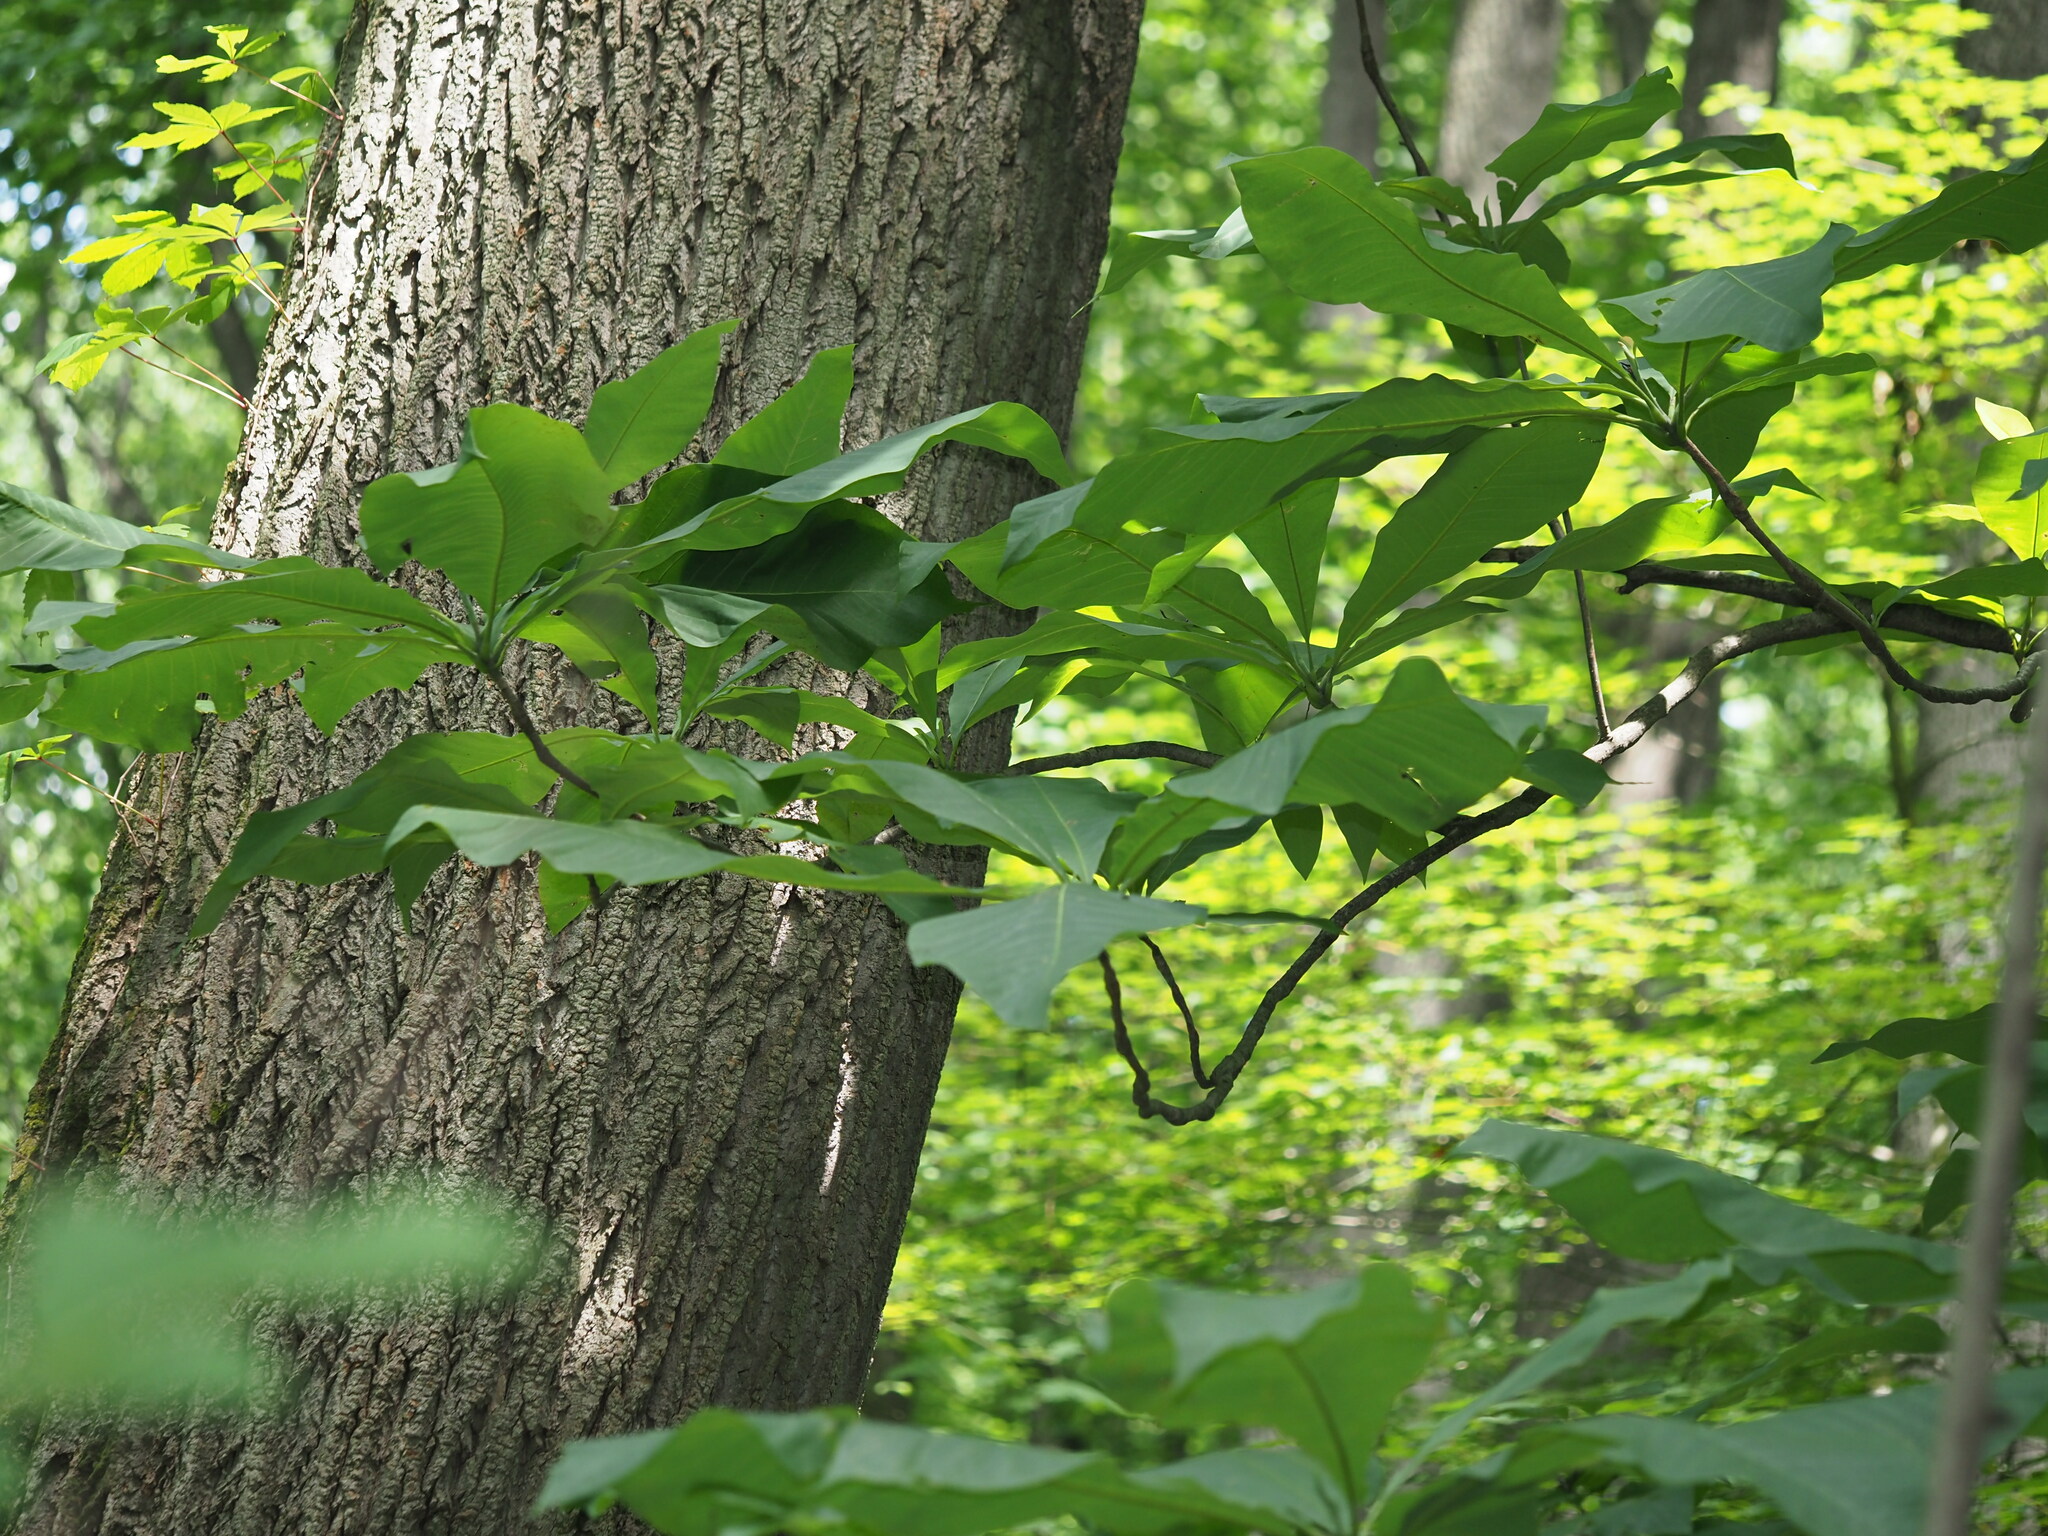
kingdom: Plantae
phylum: Tracheophyta
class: Magnoliopsida
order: Magnoliales
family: Magnoliaceae
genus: Magnolia
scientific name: Magnolia tripetala
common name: Umbrella magnolia
